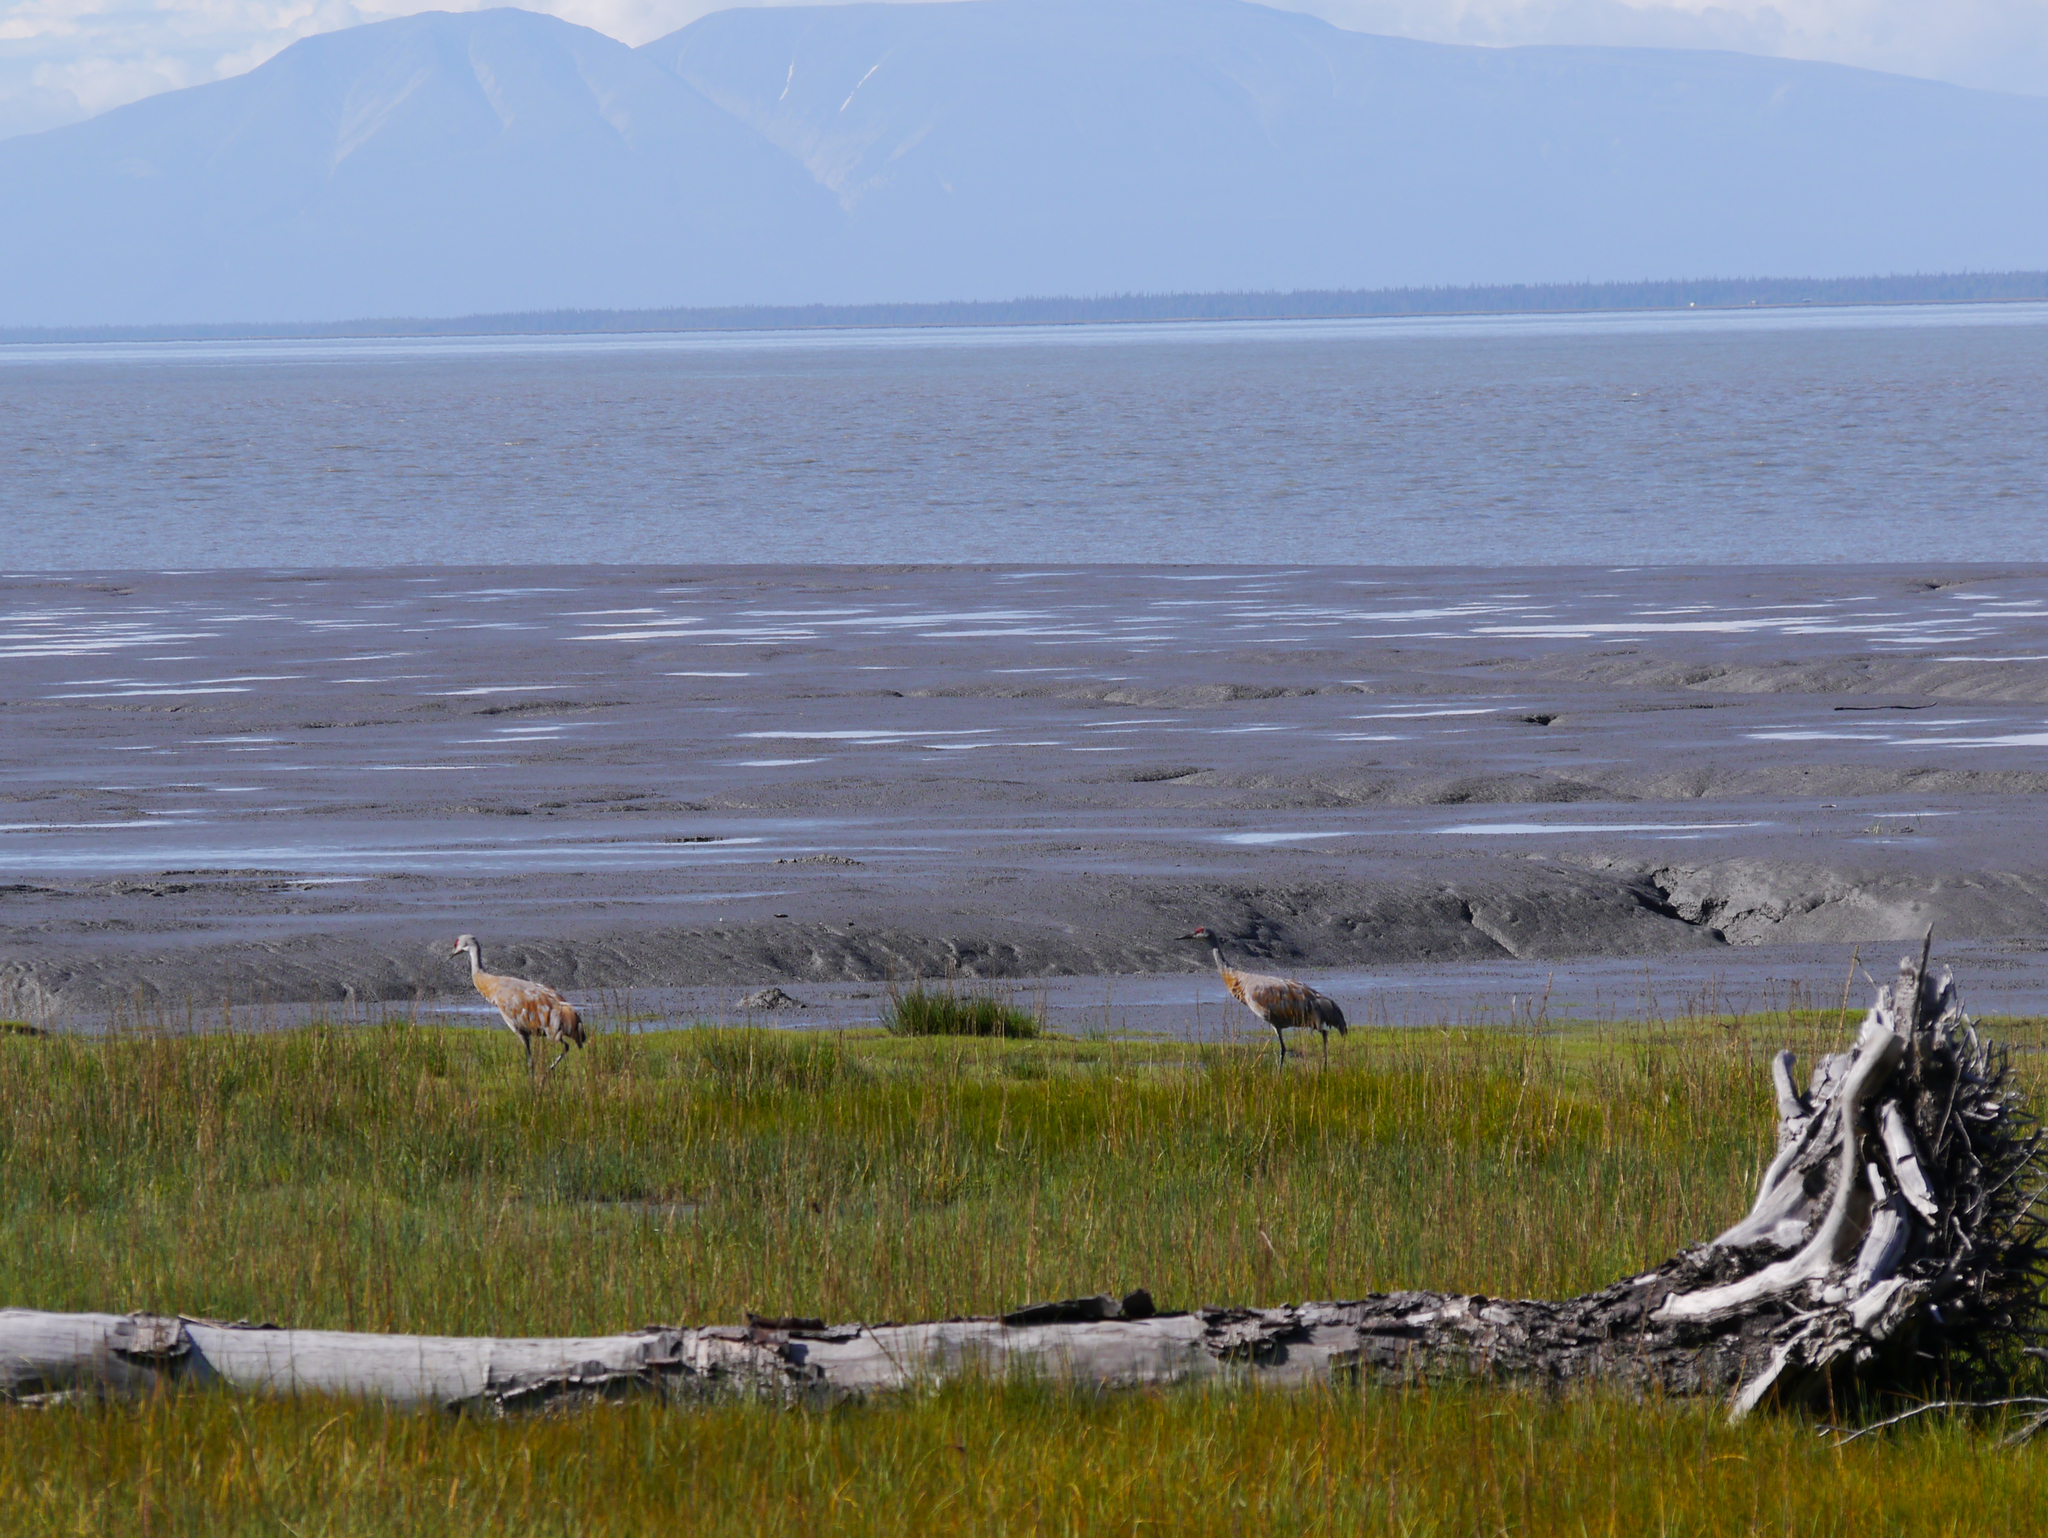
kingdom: Animalia
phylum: Chordata
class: Aves
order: Gruiformes
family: Gruidae
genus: Grus
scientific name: Grus canadensis
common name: Sandhill crane
